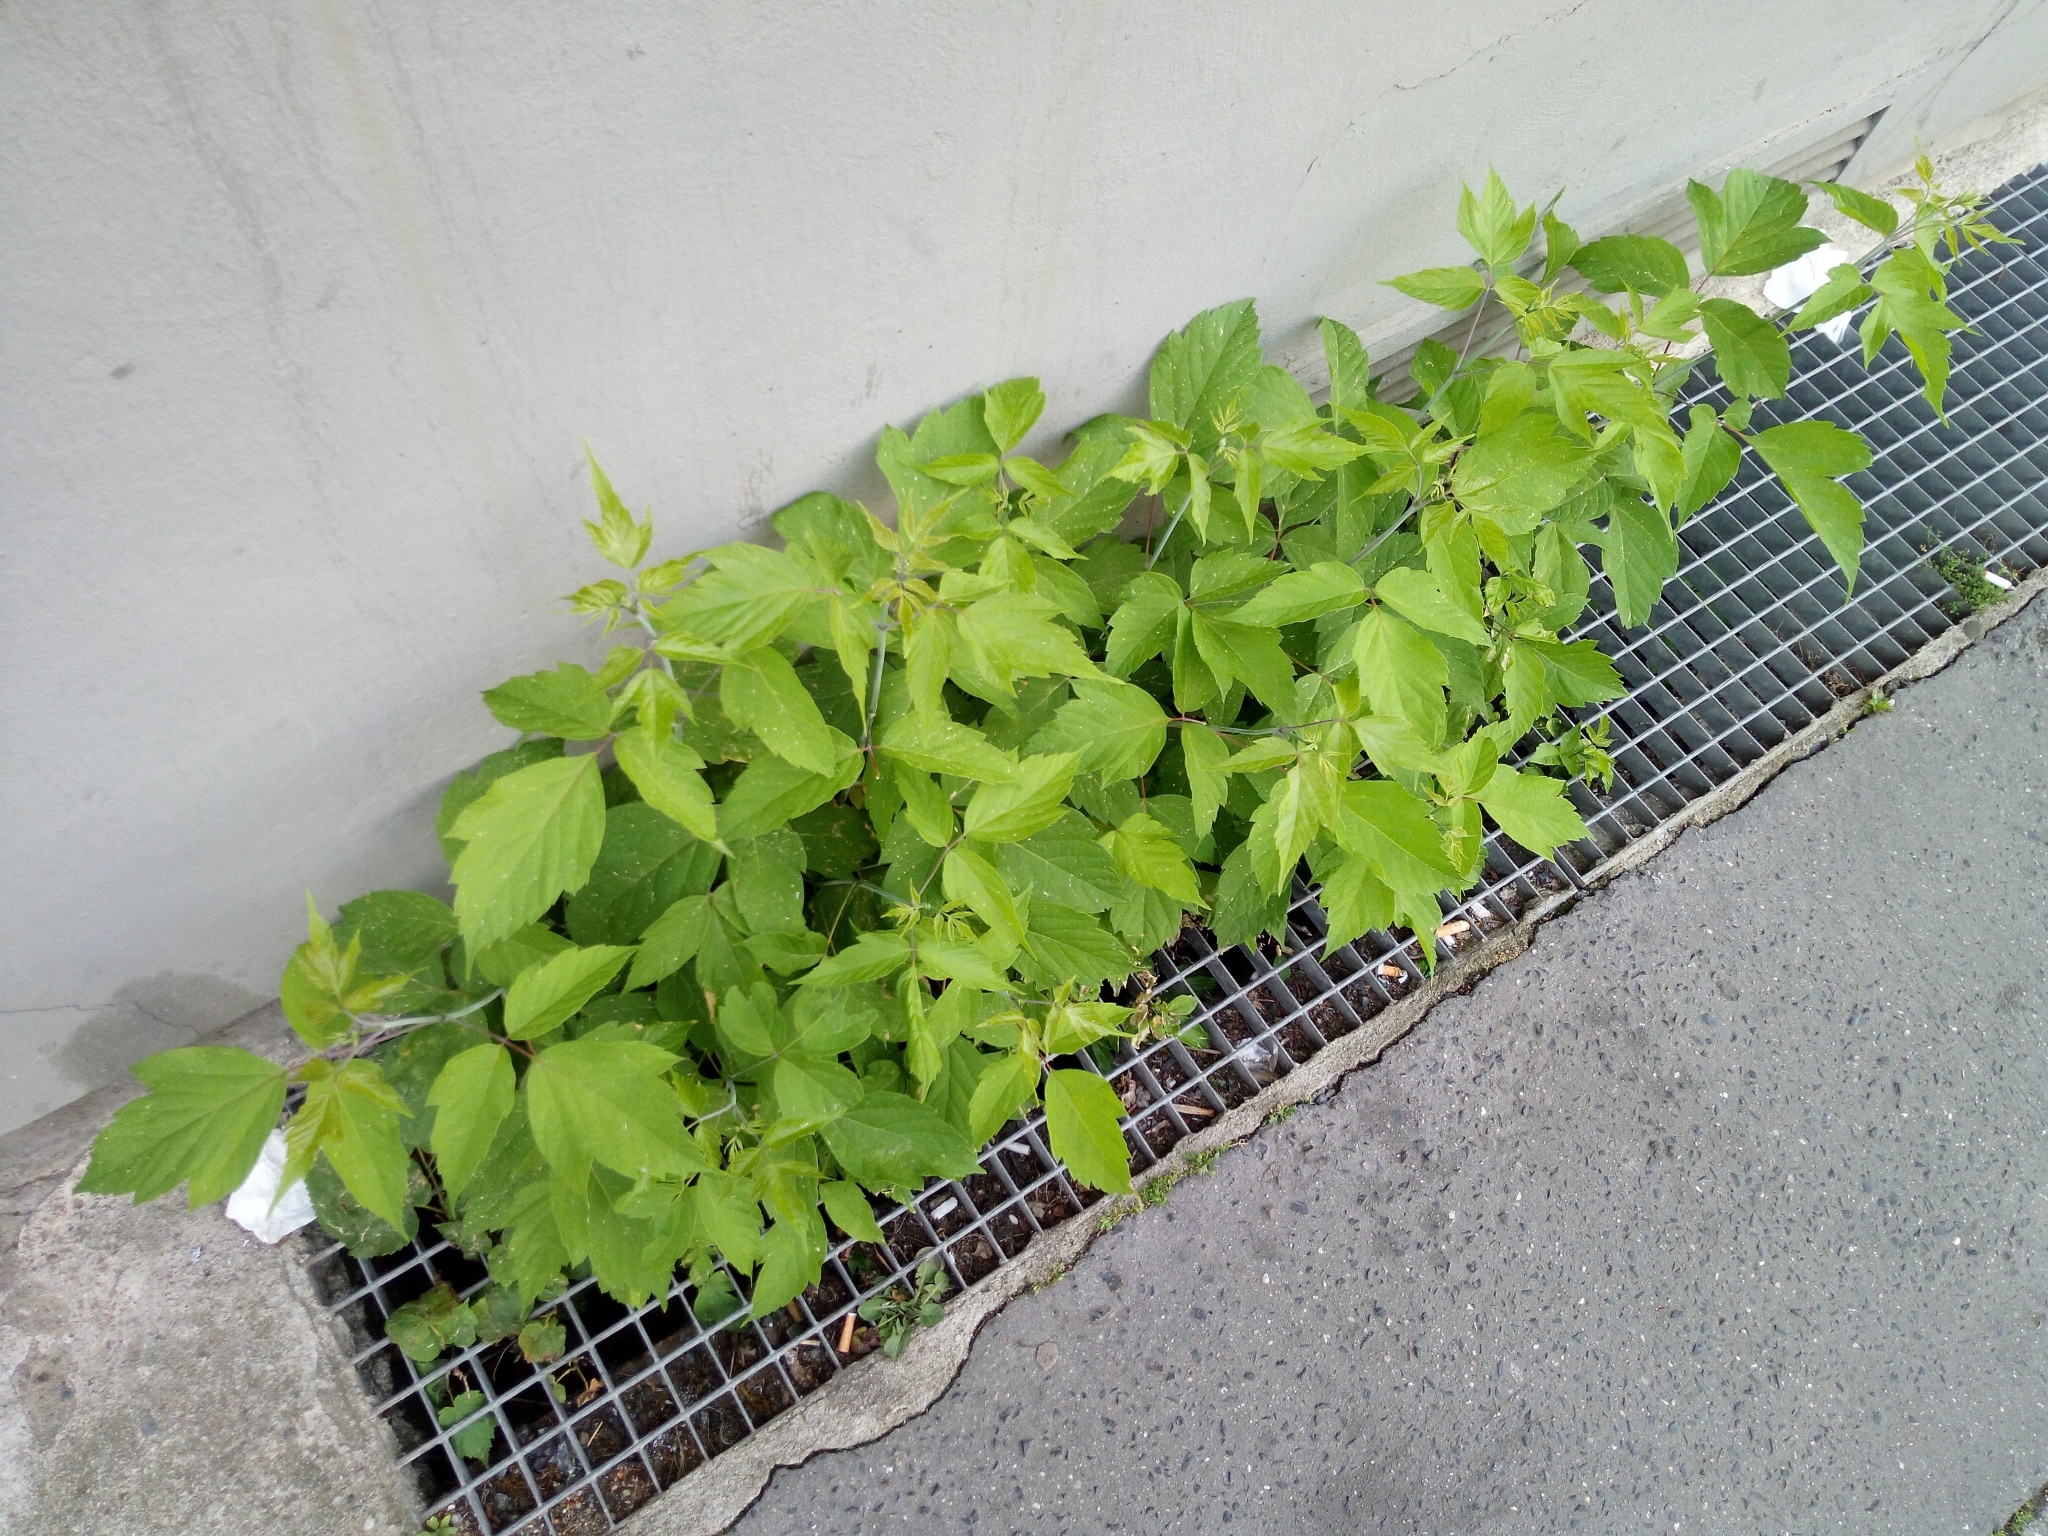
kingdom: Plantae
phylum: Tracheophyta
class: Magnoliopsida
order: Sapindales
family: Sapindaceae
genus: Acer
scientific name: Acer negundo
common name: Ashleaf maple
